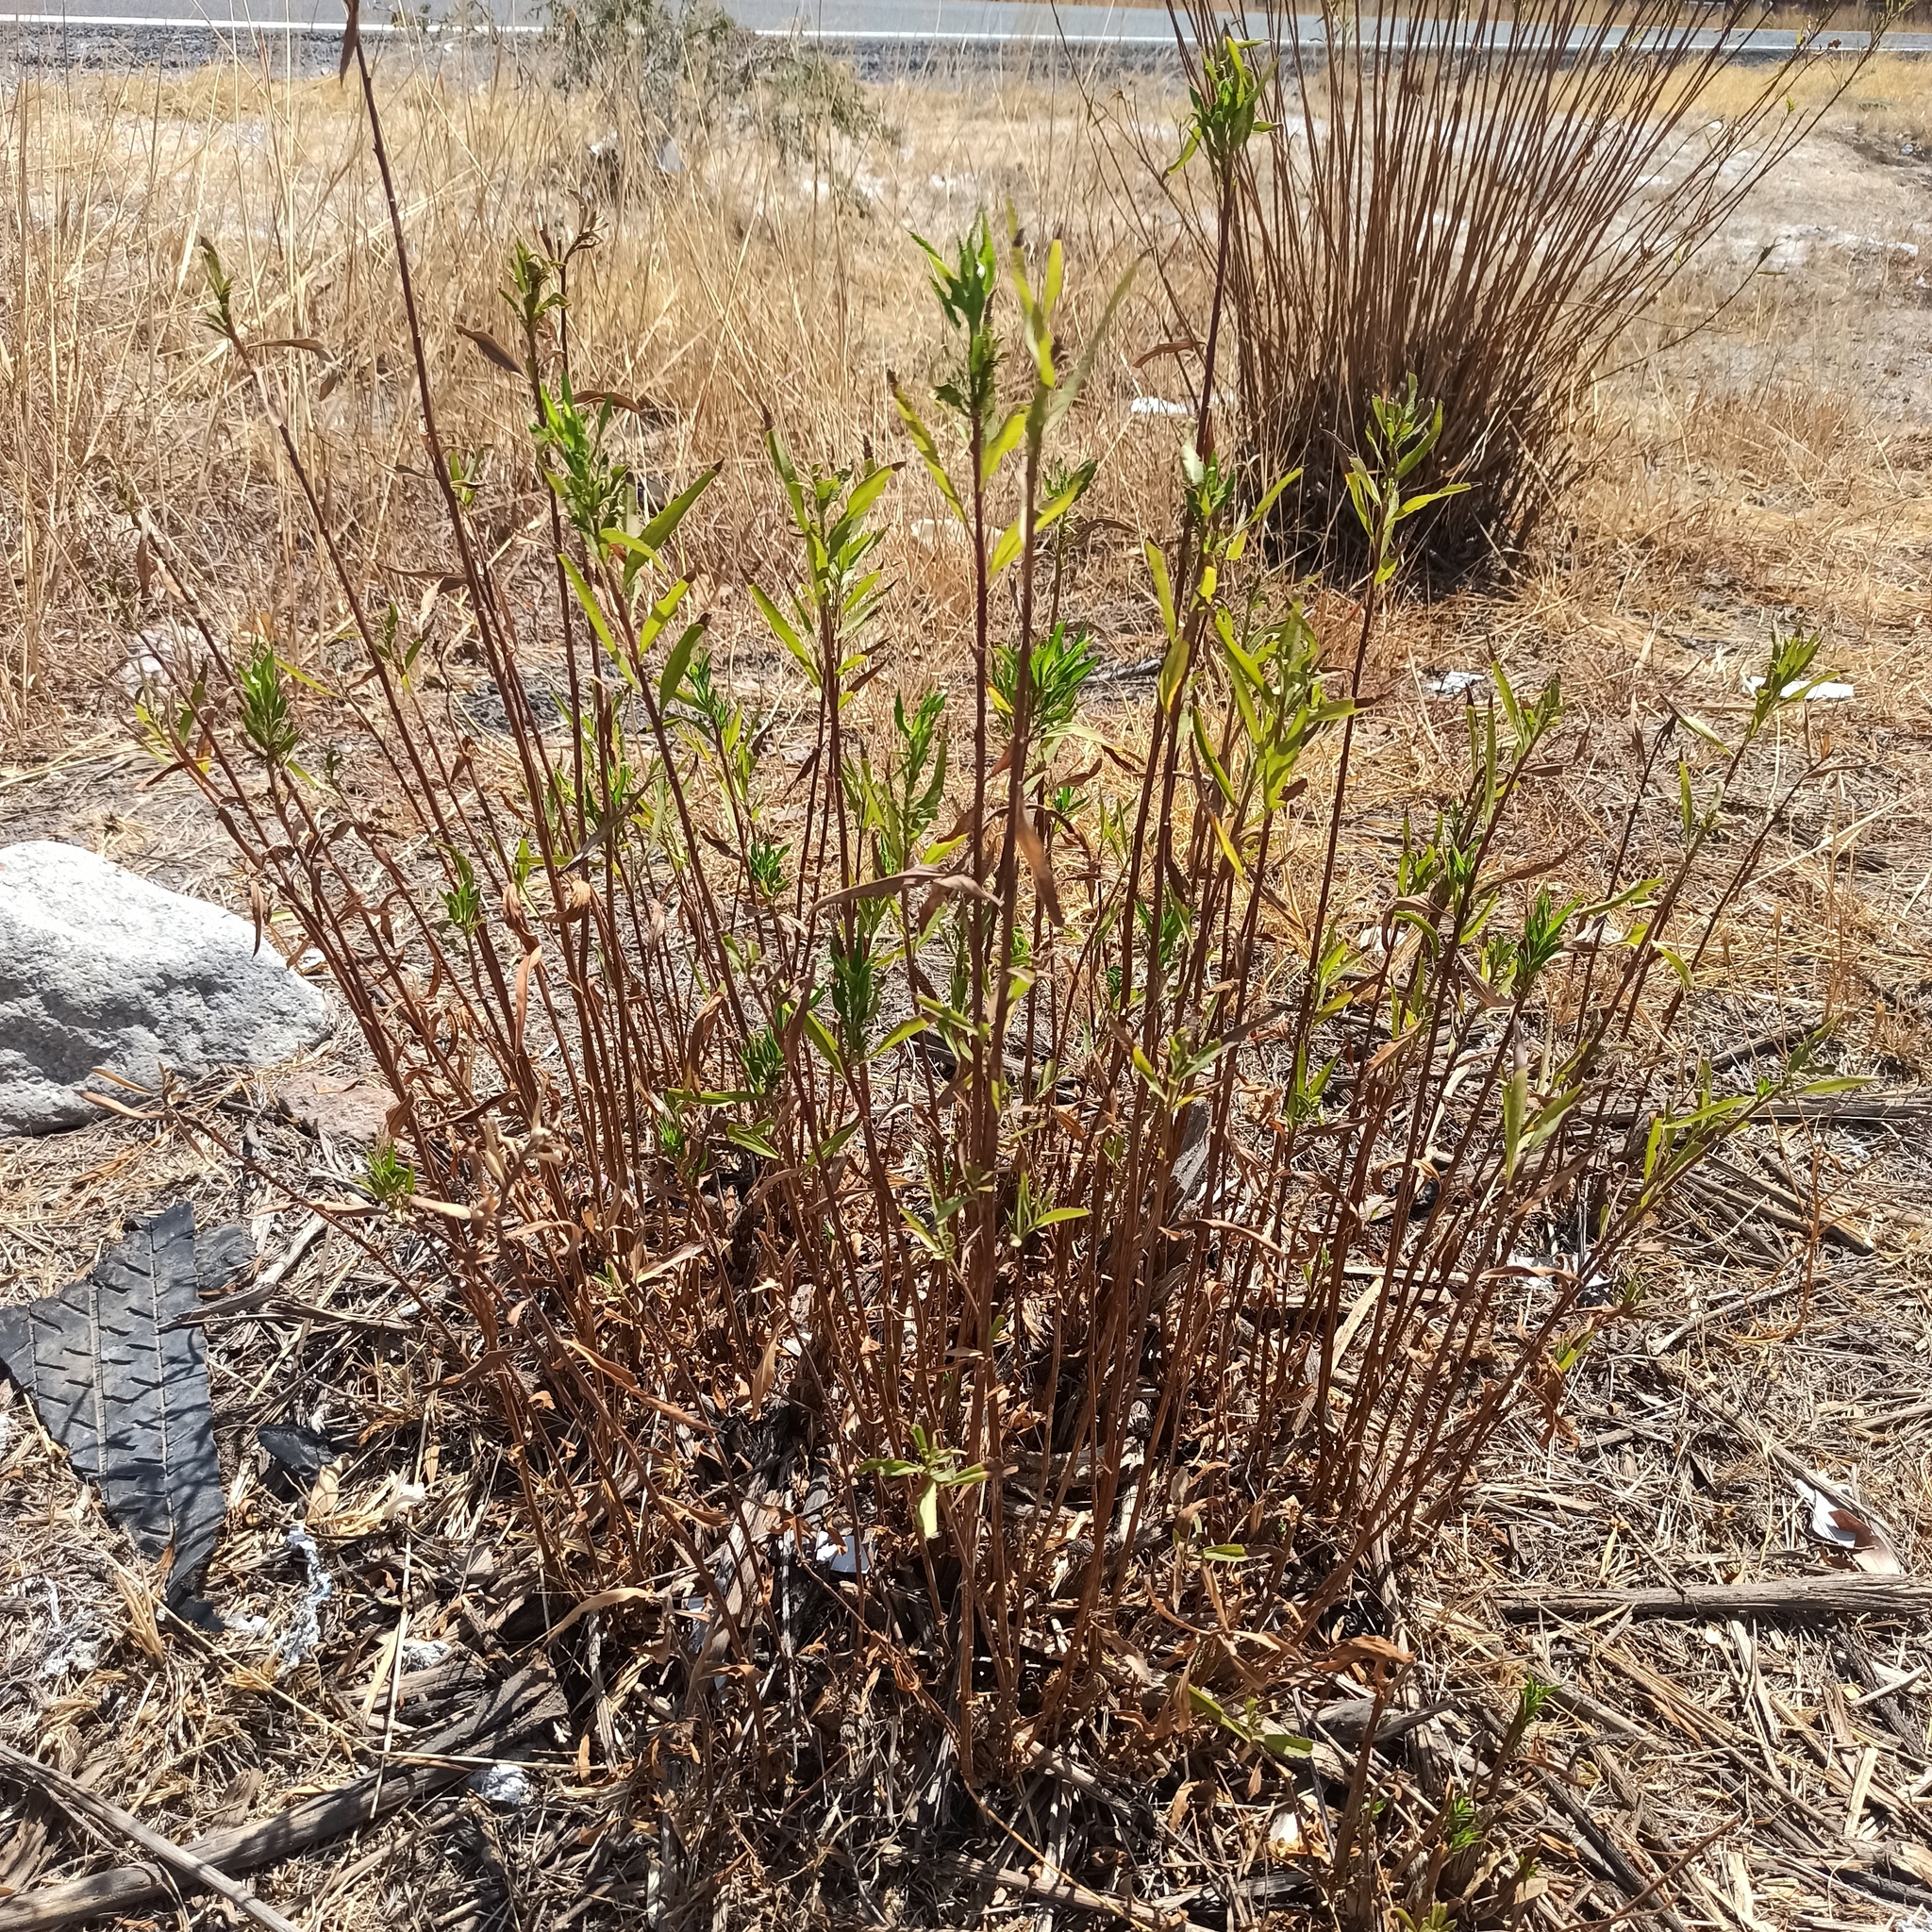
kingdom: Plantae
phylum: Tracheophyta
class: Magnoliopsida
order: Asterales
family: Asteraceae
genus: Baccharis
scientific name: Baccharis salicifolia
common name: Sticky baccharis
